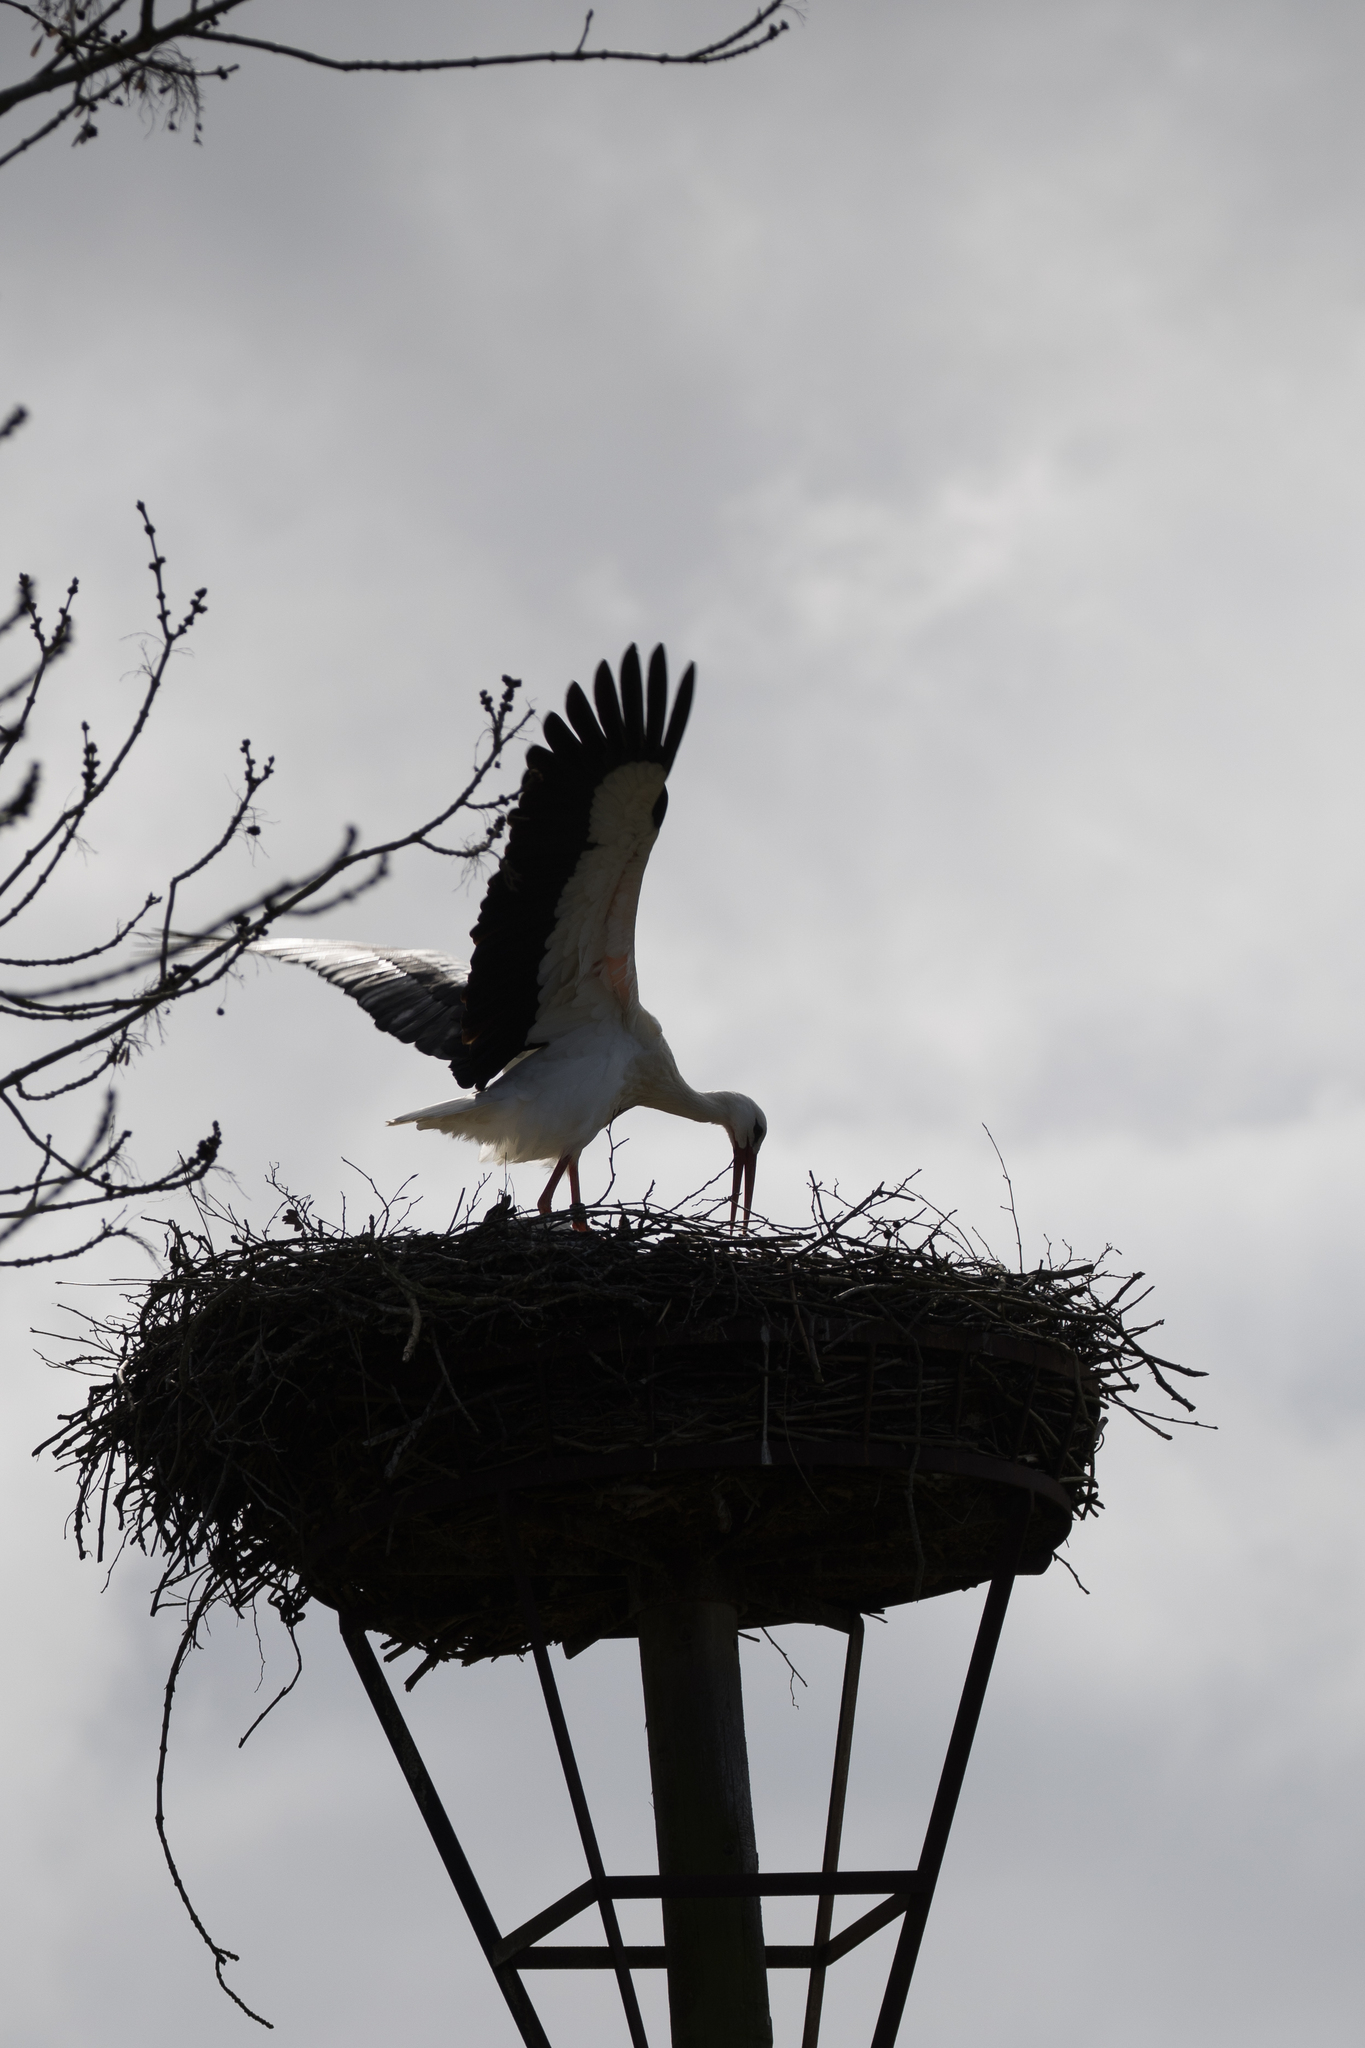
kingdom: Animalia
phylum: Chordata
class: Aves
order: Ciconiiformes
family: Ciconiidae
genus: Ciconia
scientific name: Ciconia ciconia
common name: White stork
